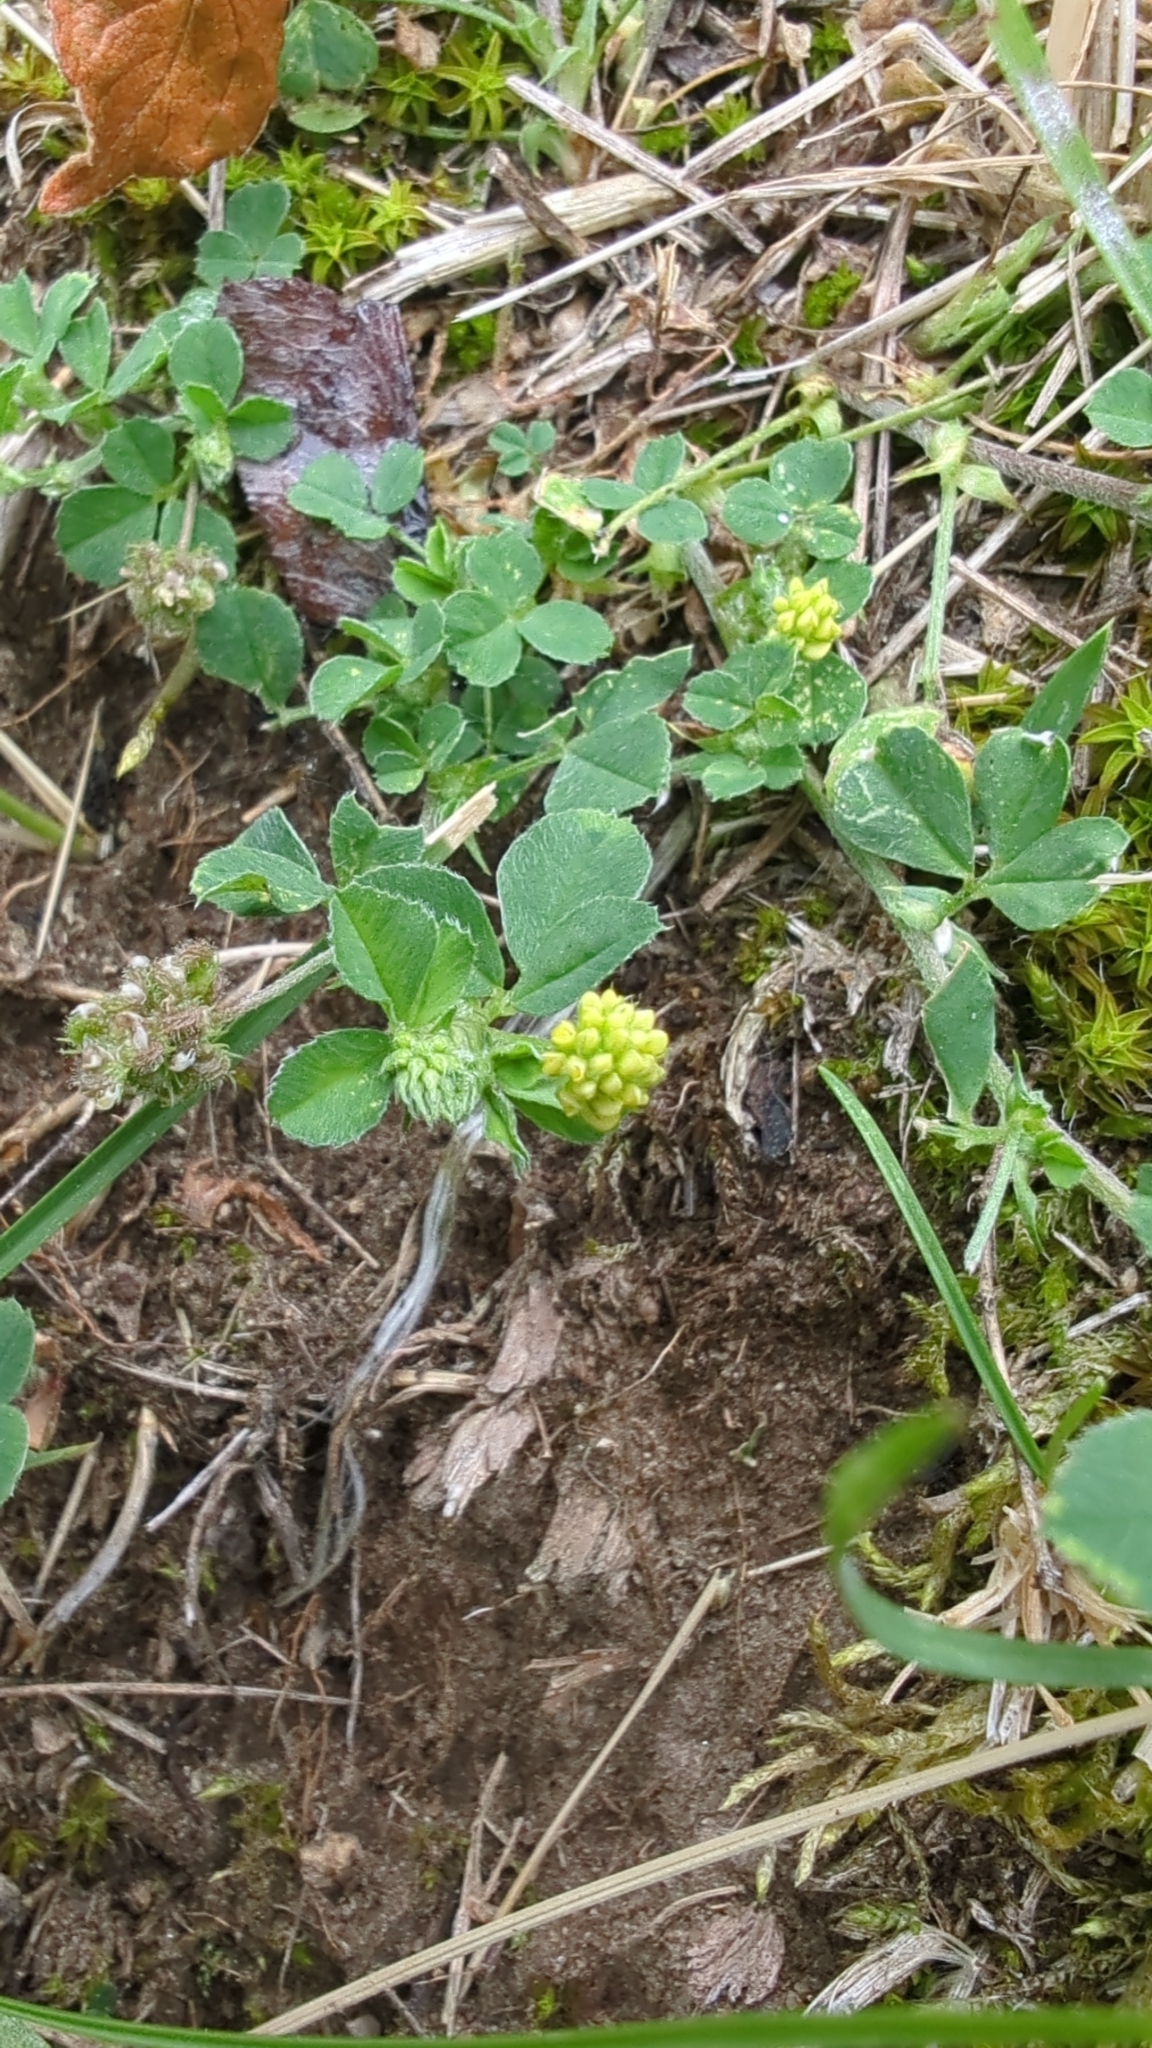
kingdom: Plantae
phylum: Tracheophyta
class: Magnoliopsida
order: Fabales
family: Fabaceae
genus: Medicago
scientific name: Medicago lupulina
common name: Black medick
